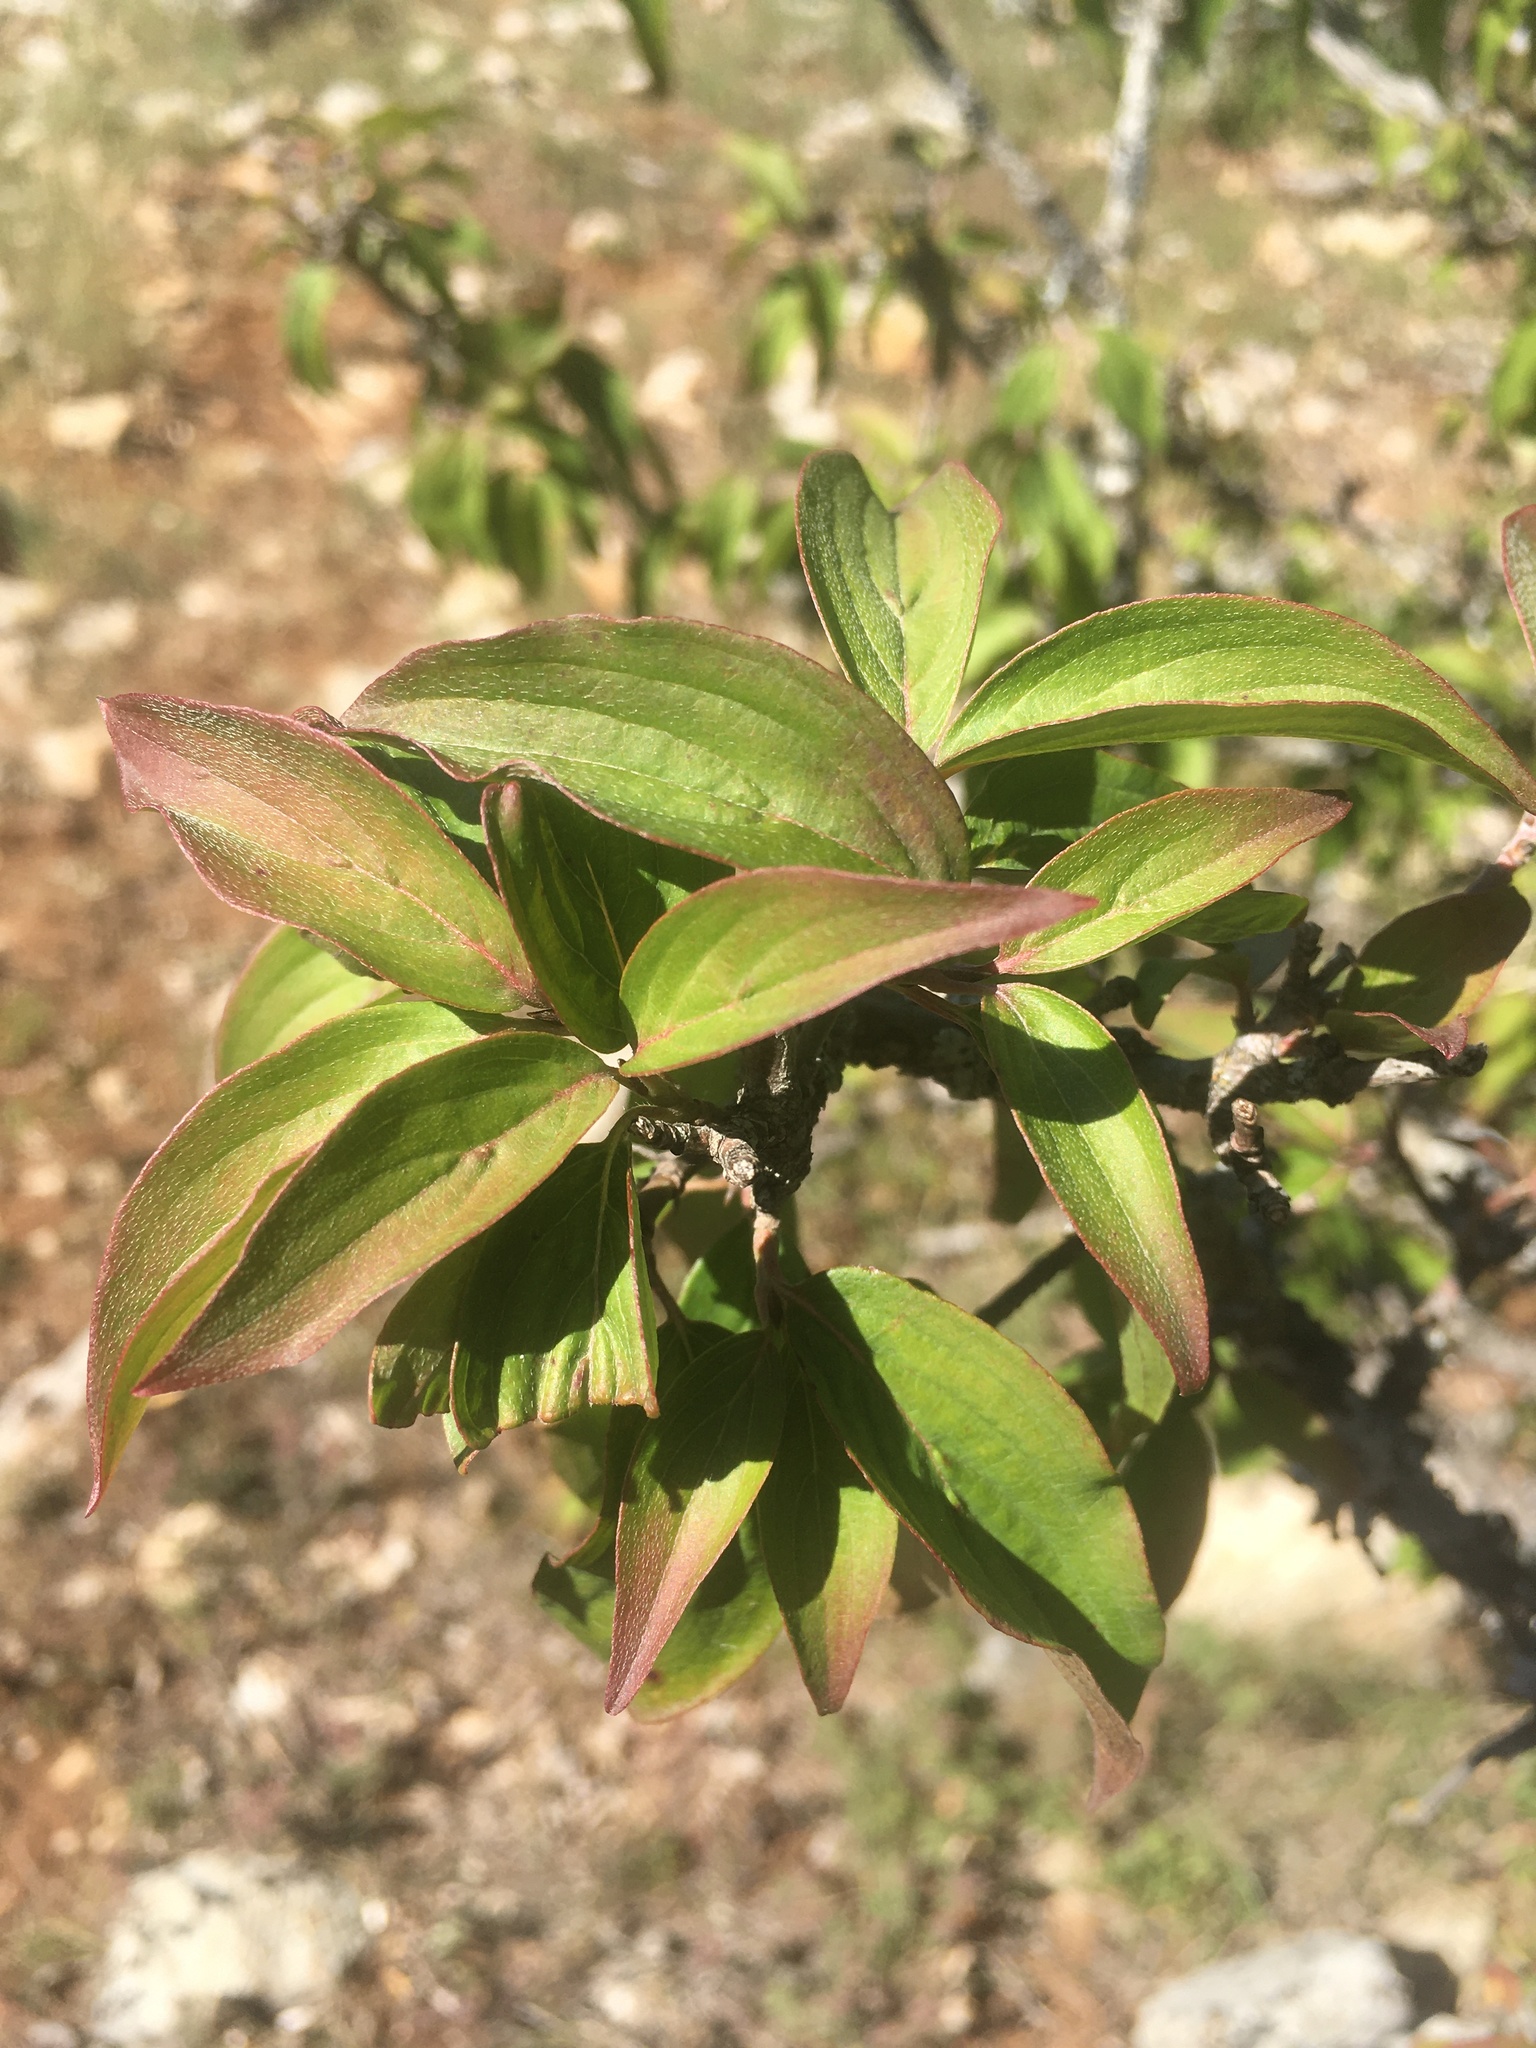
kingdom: Plantae
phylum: Tracheophyta
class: Magnoliopsida
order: Cornales
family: Cornaceae
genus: Cornus
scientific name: Cornus sanguinea
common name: Dogwood
